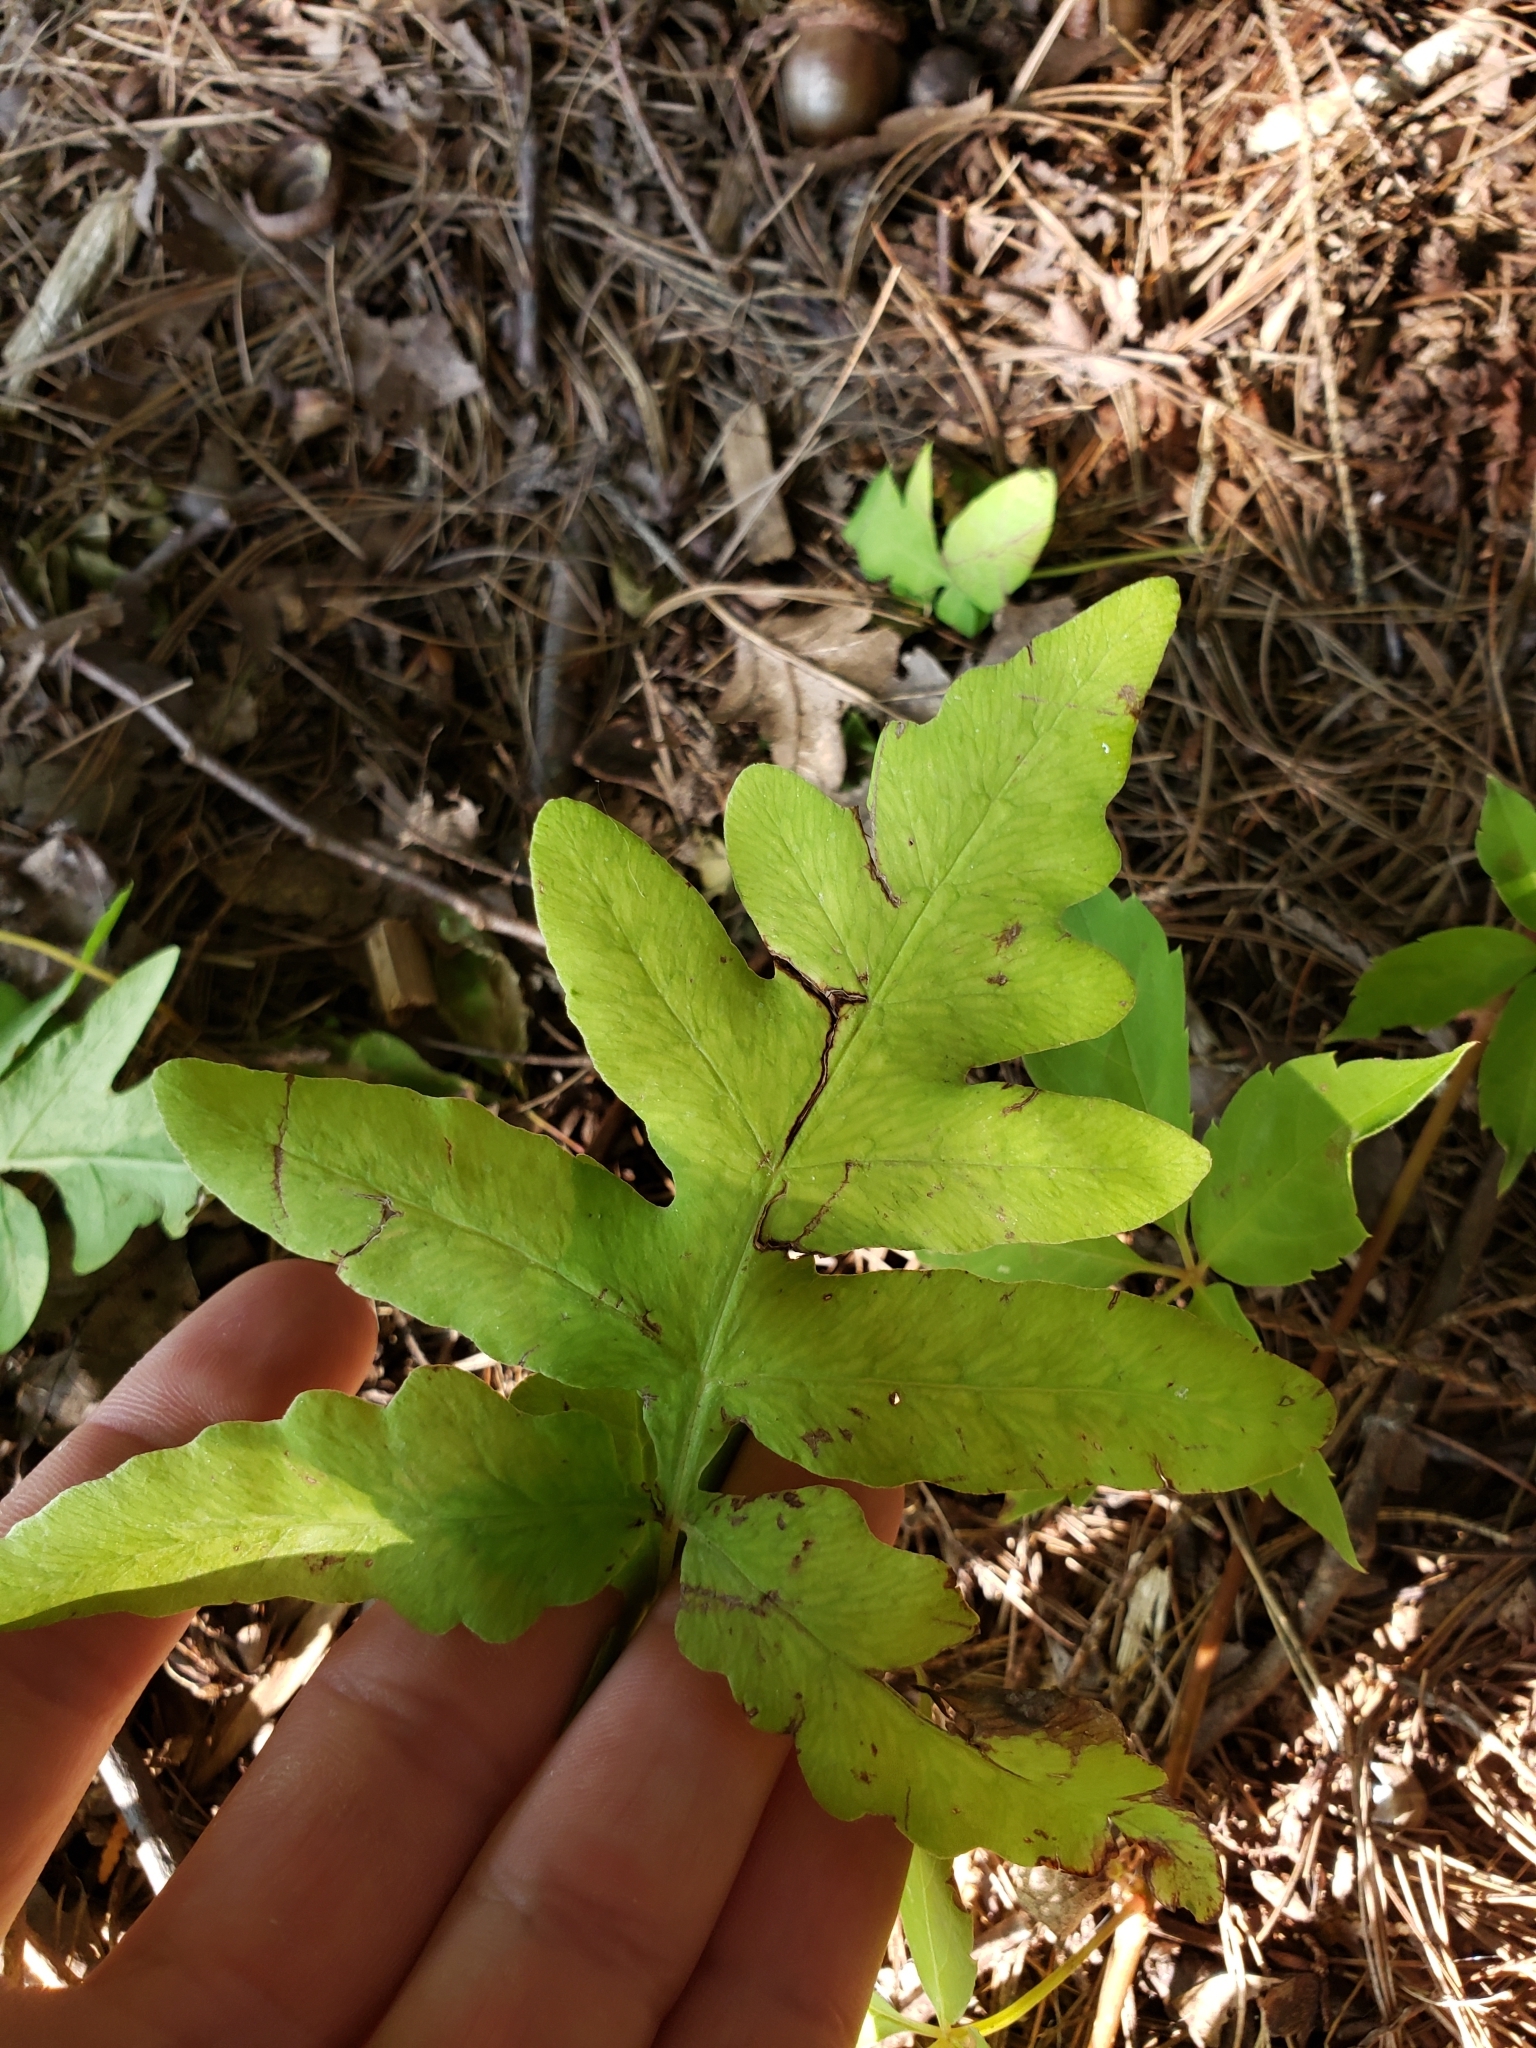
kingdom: Plantae
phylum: Tracheophyta
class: Polypodiopsida
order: Polypodiales
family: Onocleaceae
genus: Onoclea
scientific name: Onoclea sensibilis
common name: Sensitive fern
